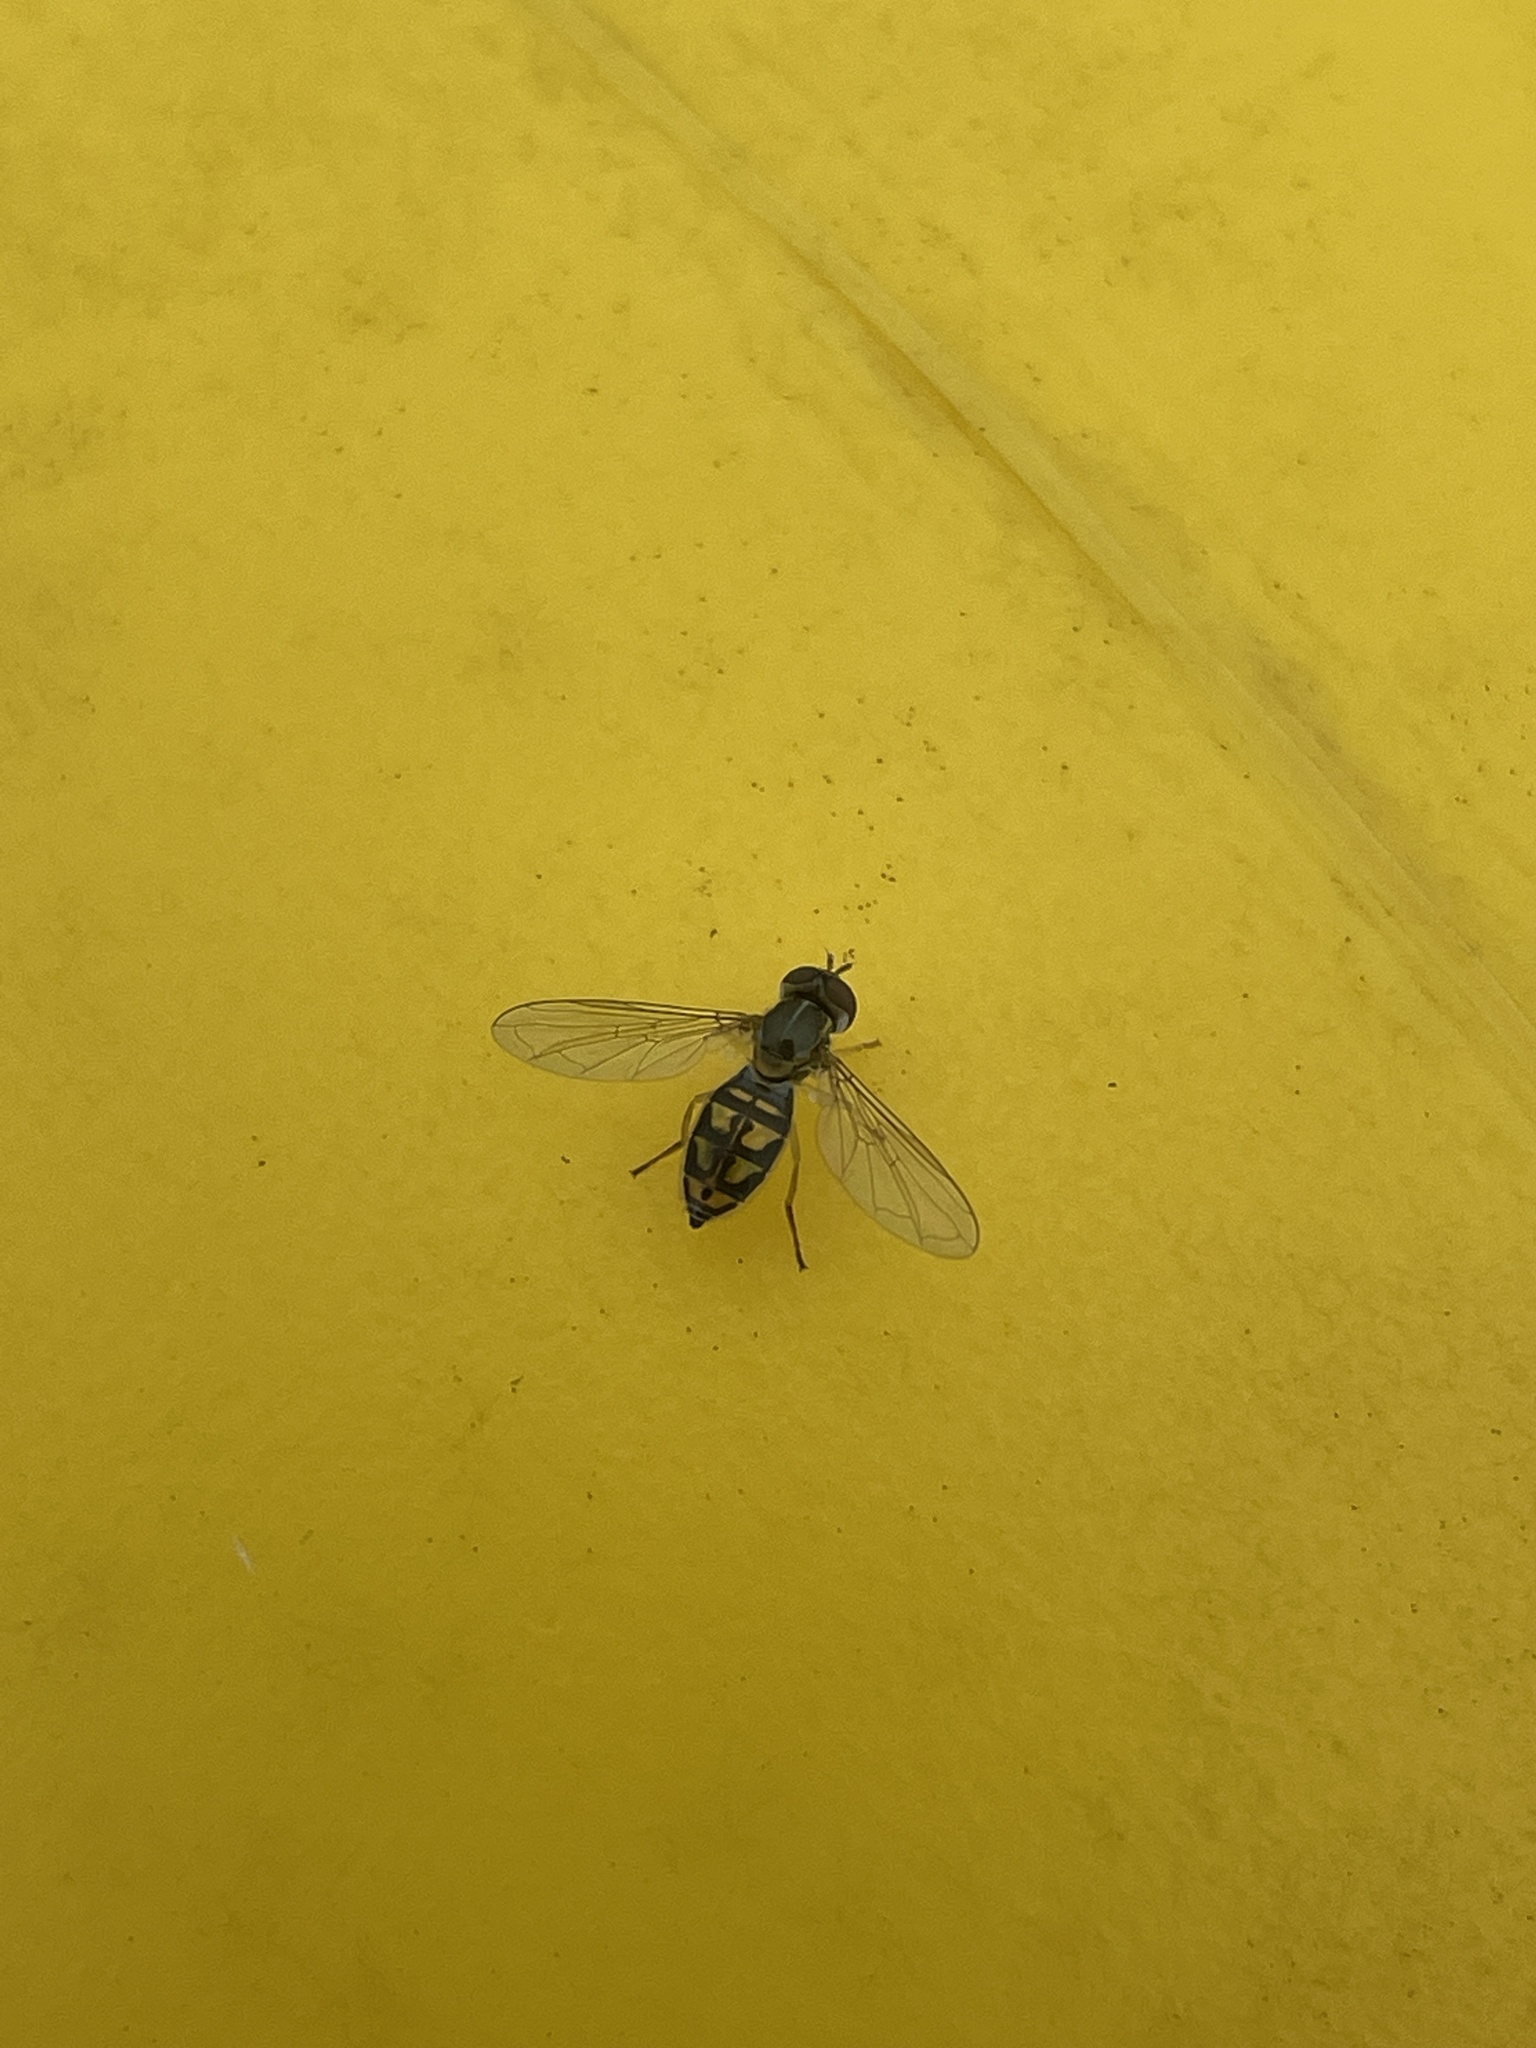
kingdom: Animalia
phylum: Arthropoda
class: Insecta
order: Diptera
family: Syrphidae
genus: Toxomerus
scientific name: Toxomerus marginatus
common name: Syrphid fly
